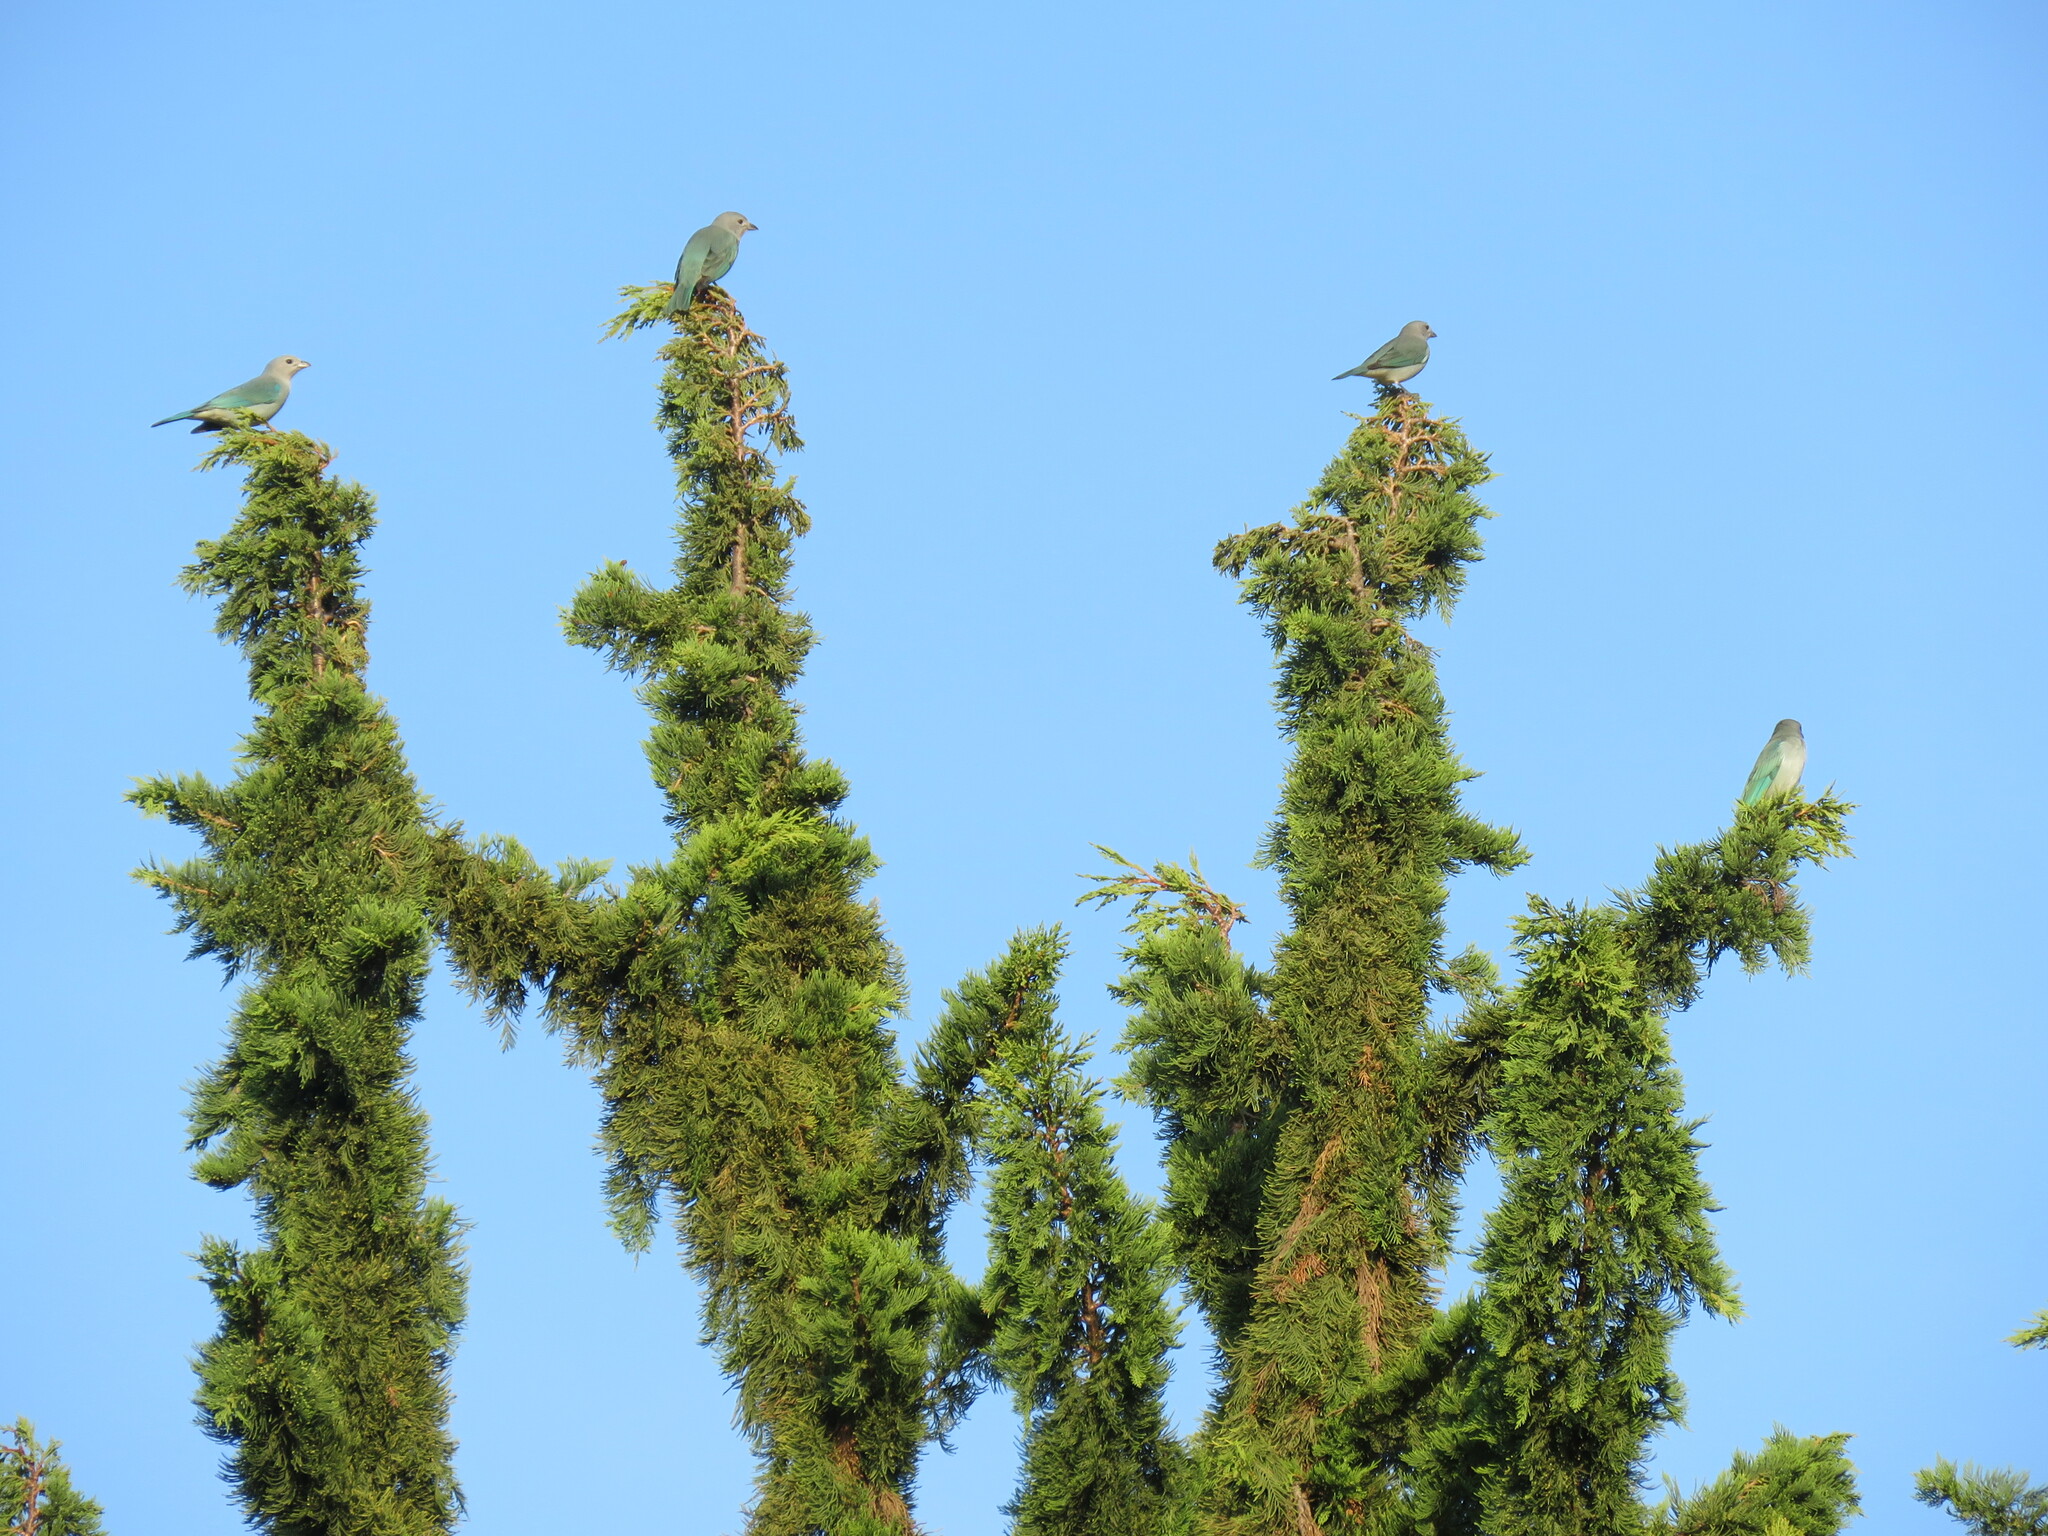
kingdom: Animalia
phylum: Chordata
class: Aves
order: Passeriformes
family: Thraupidae
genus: Thraupis
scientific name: Thraupis sayaca
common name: Sayaca tanager
